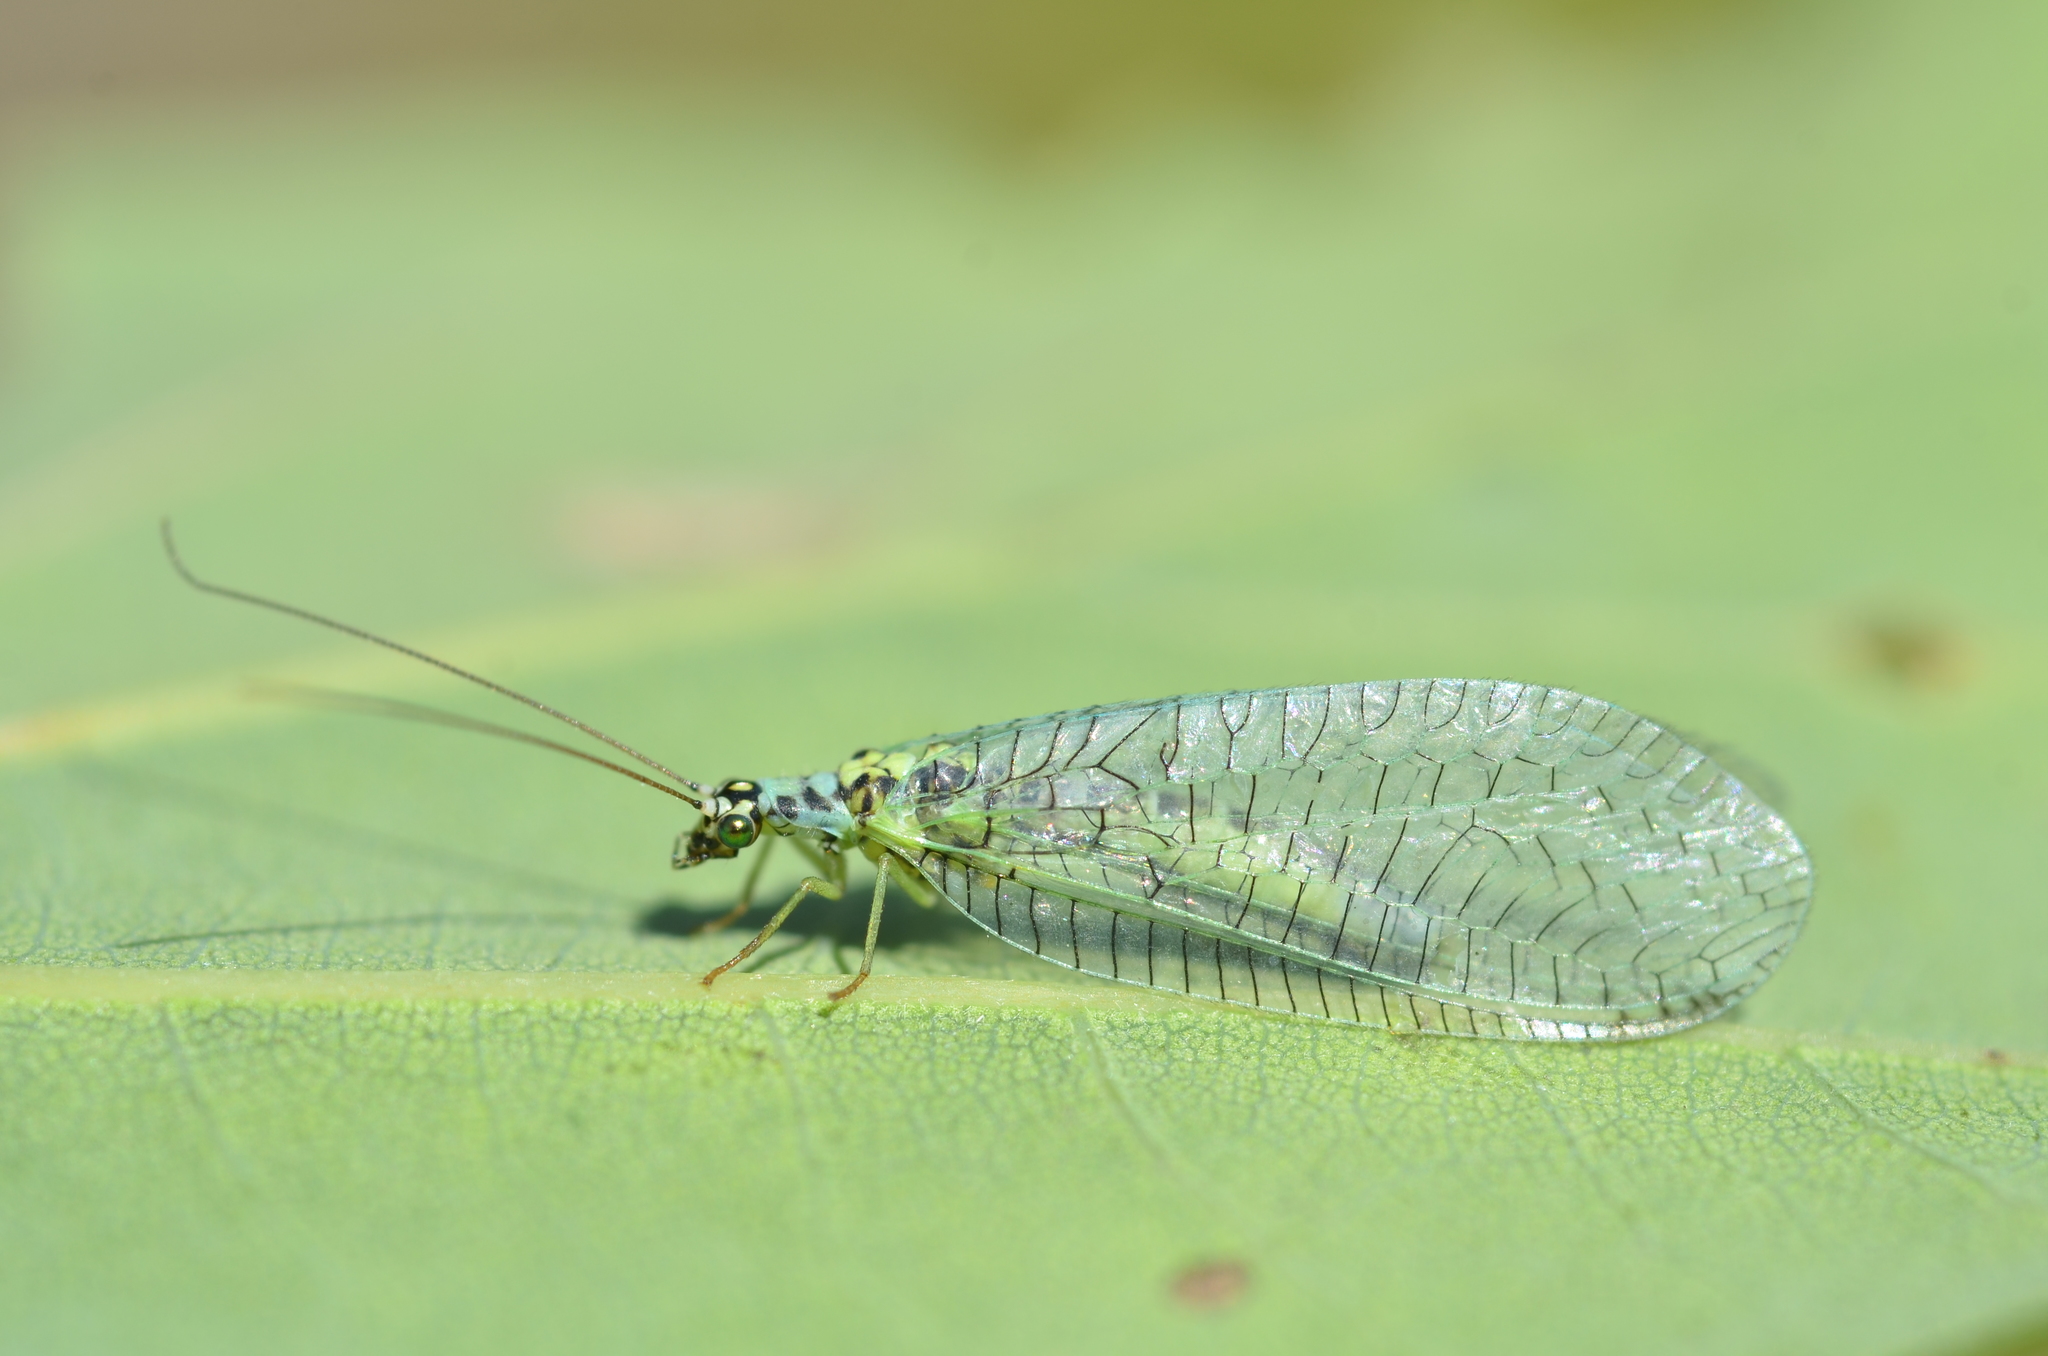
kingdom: Animalia
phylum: Arthropoda
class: Insecta
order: Neuroptera
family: Chrysopidae
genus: Chrysopa
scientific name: Chrysopa perla
